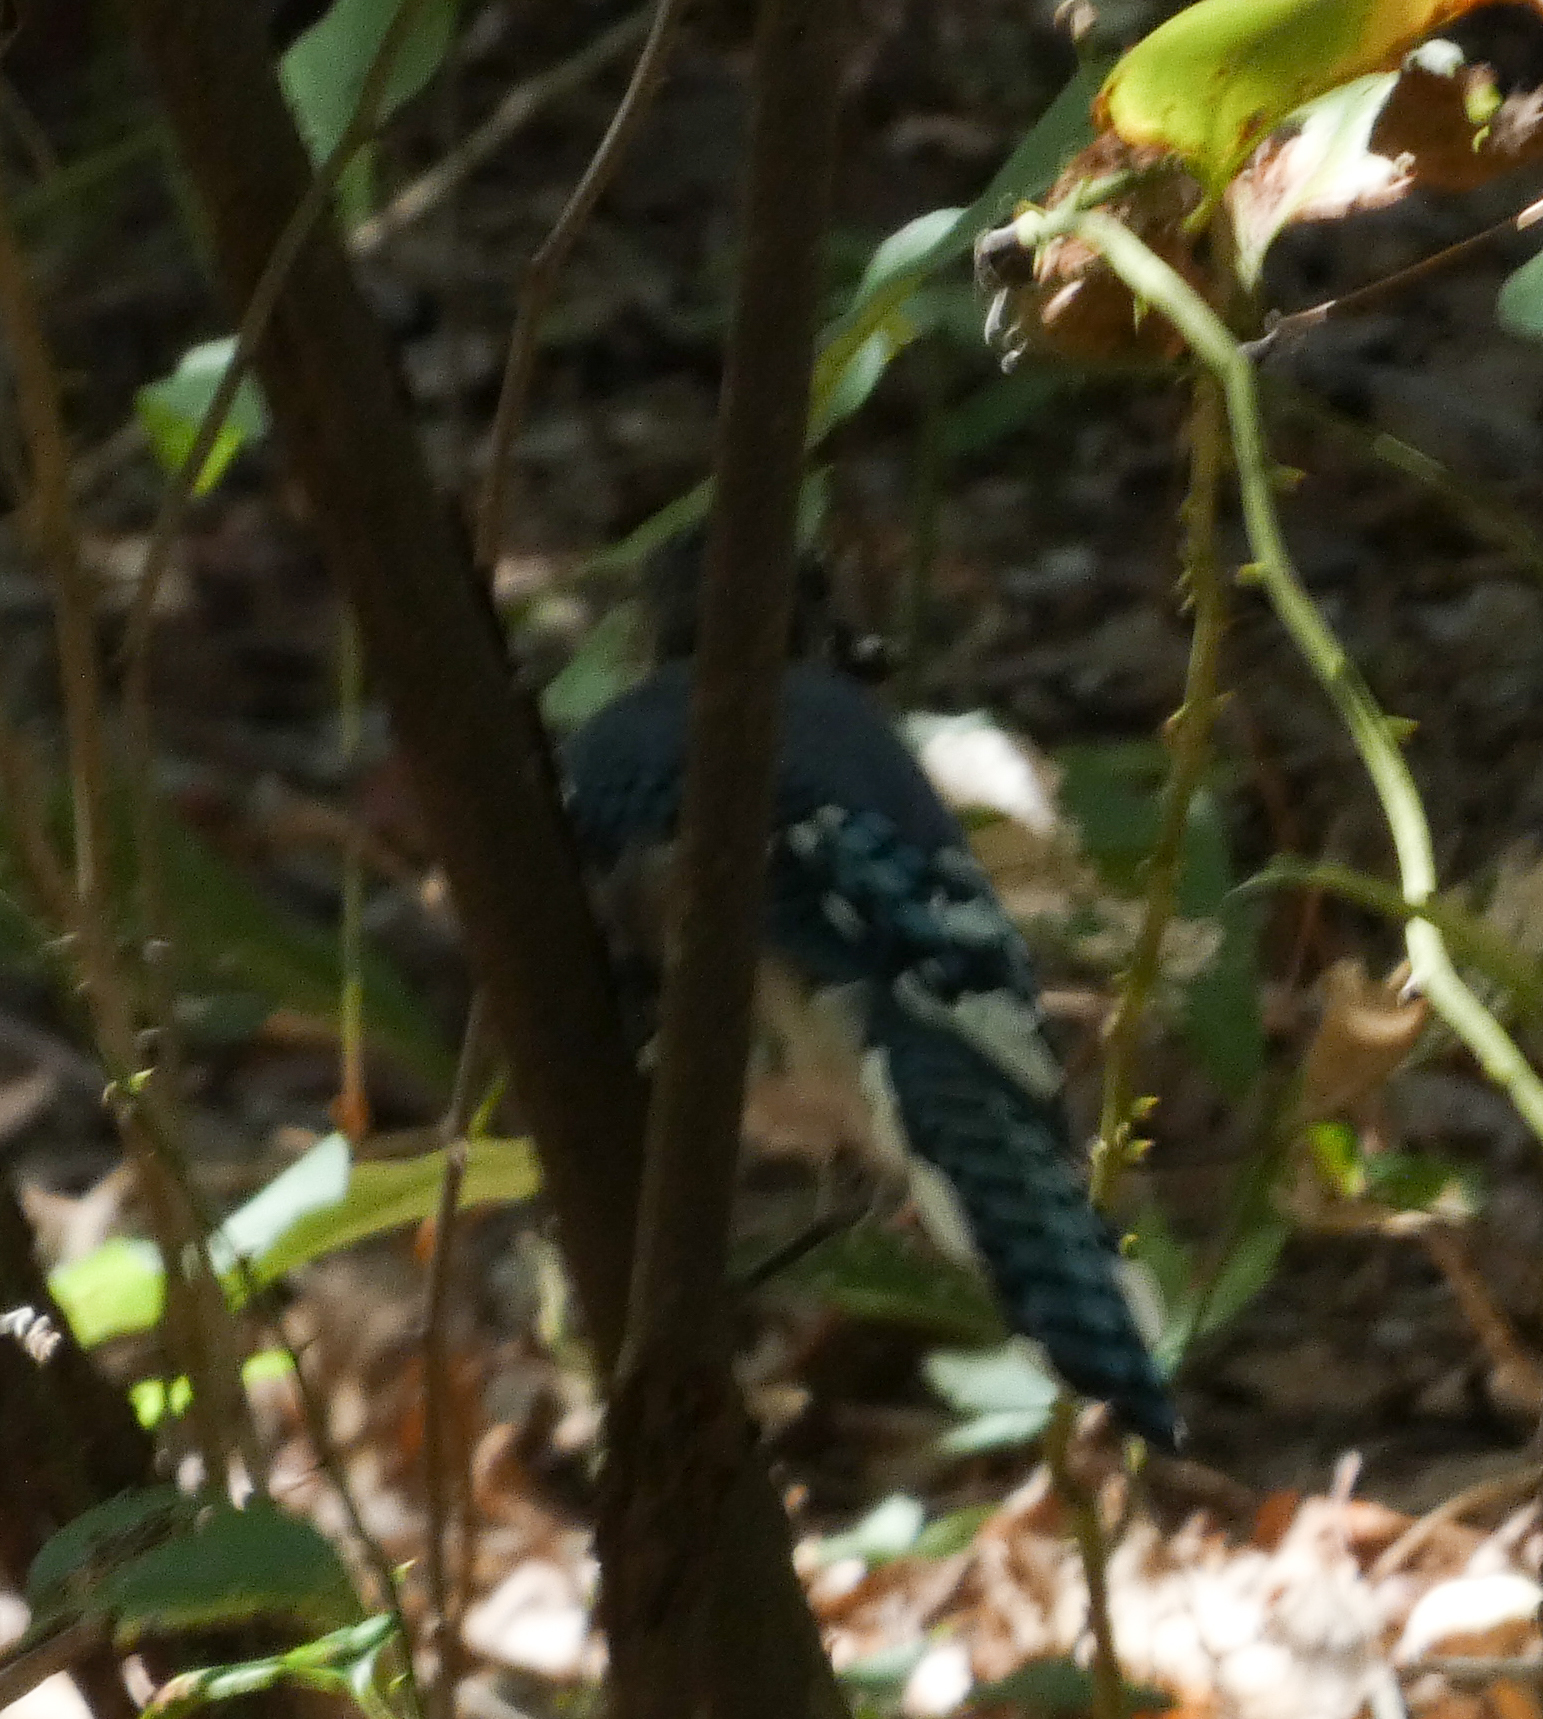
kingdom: Animalia
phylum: Chordata
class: Aves
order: Passeriformes
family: Corvidae
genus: Cyanocitta
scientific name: Cyanocitta cristata
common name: Blue jay
